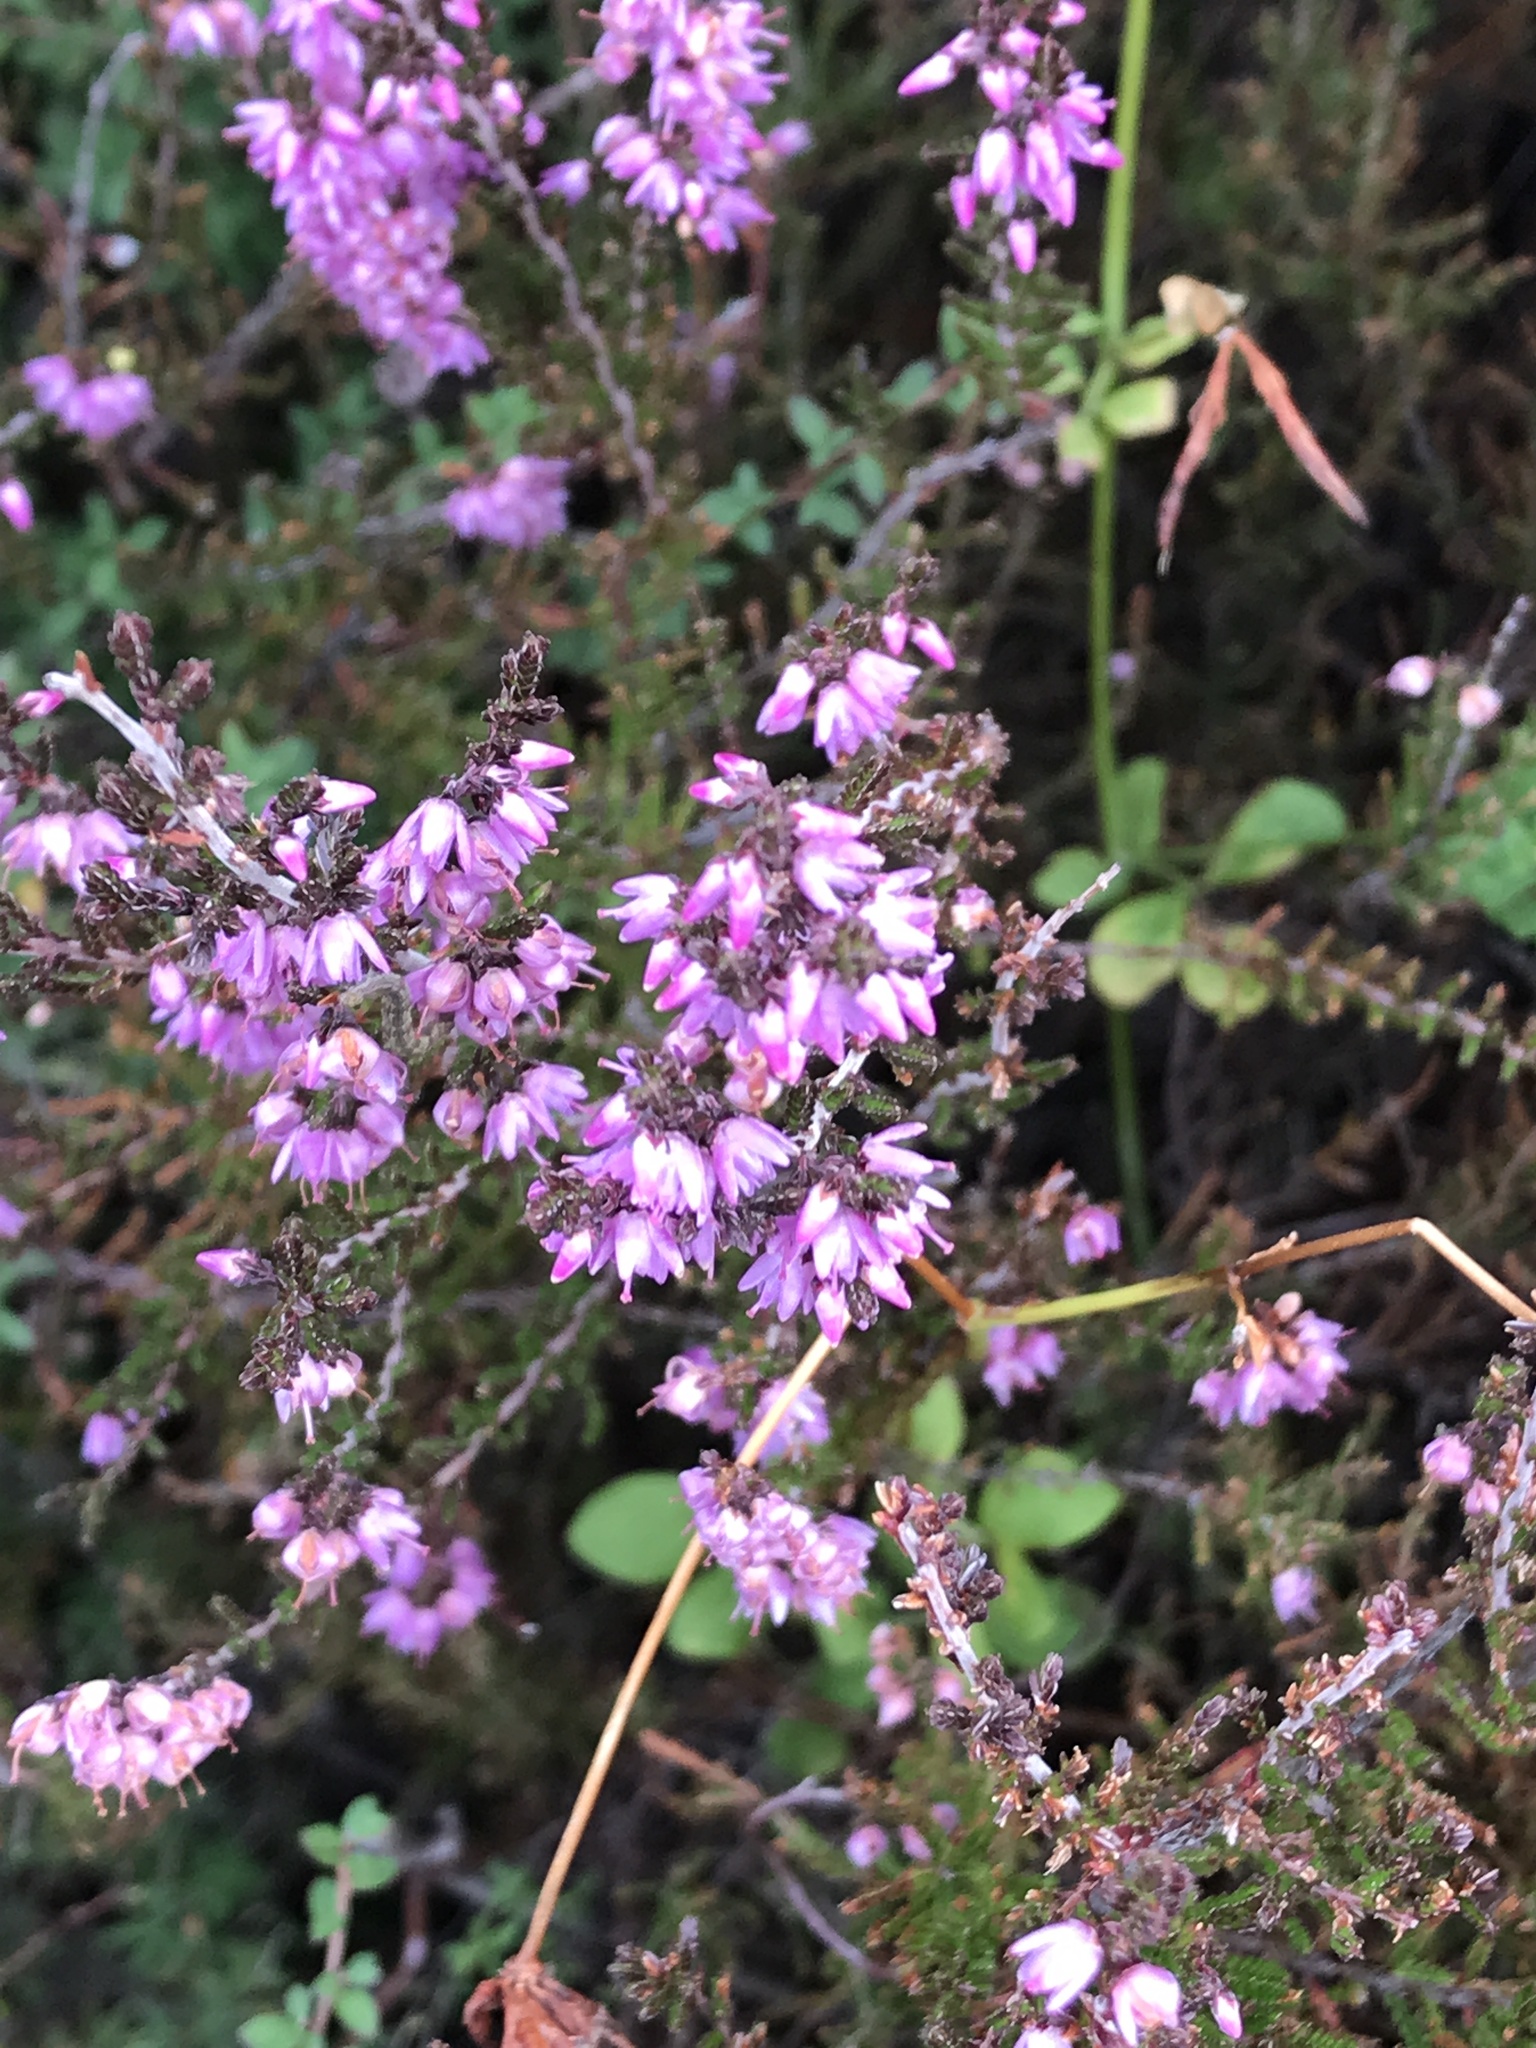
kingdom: Plantae
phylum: Tracheophyta
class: Magnoliopsida
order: Ericales
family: Ericaceae
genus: Calluna
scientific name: Calluna vulgaris
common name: Heather
